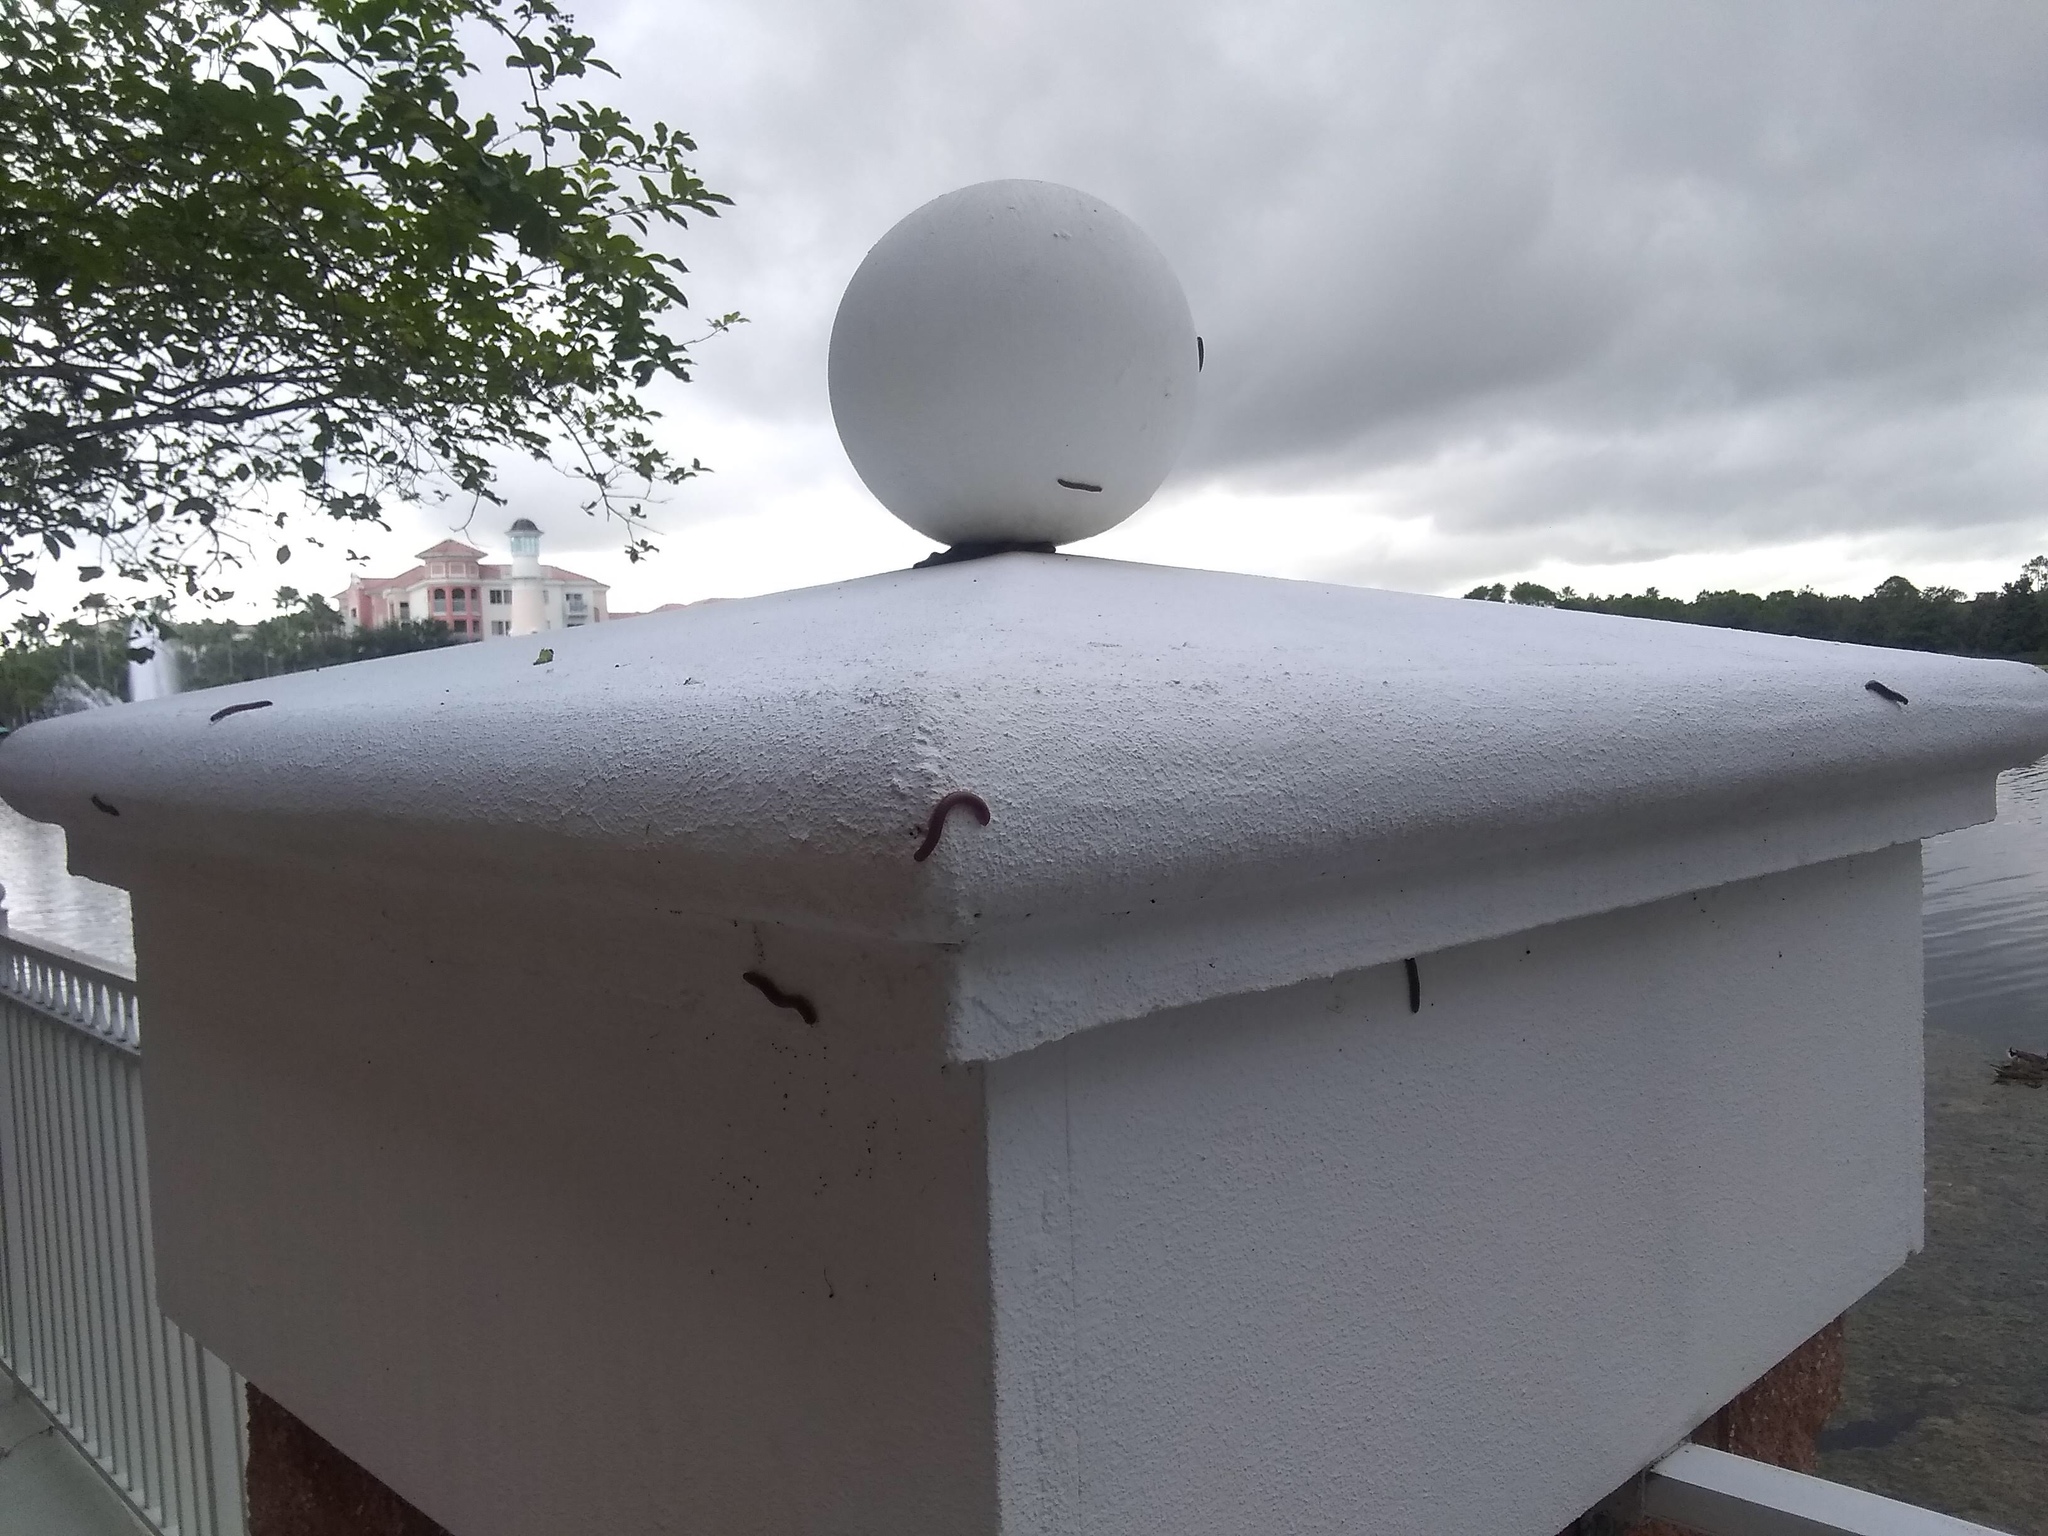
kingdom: Animalia
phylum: Arthropoda
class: Diplopoda
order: Spirobolida
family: Rhinocricidae
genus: Anadenobolus
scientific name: Anadenobolus monilicornis
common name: Caribbean millipede
